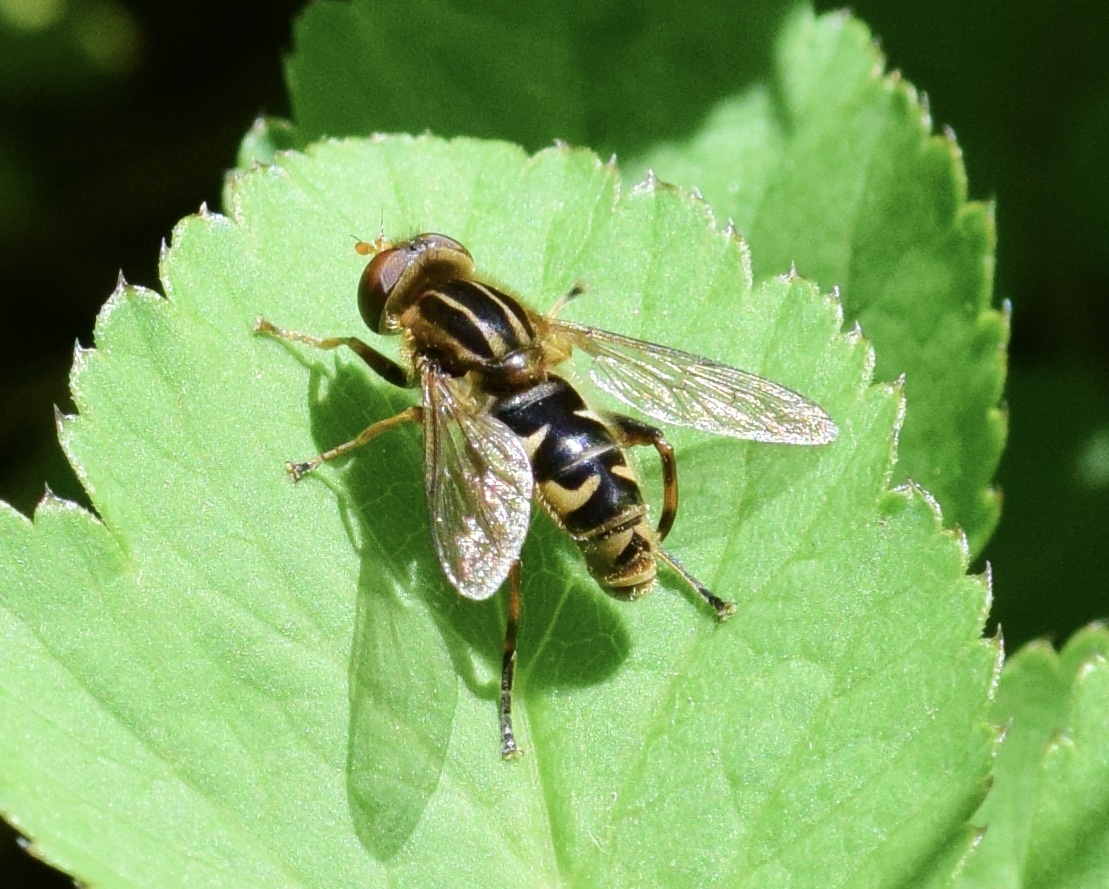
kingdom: Animalia
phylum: Arthropoda
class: Insecta
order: Diptera
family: Syrphidae
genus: Anasimyia
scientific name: Anasimyia
